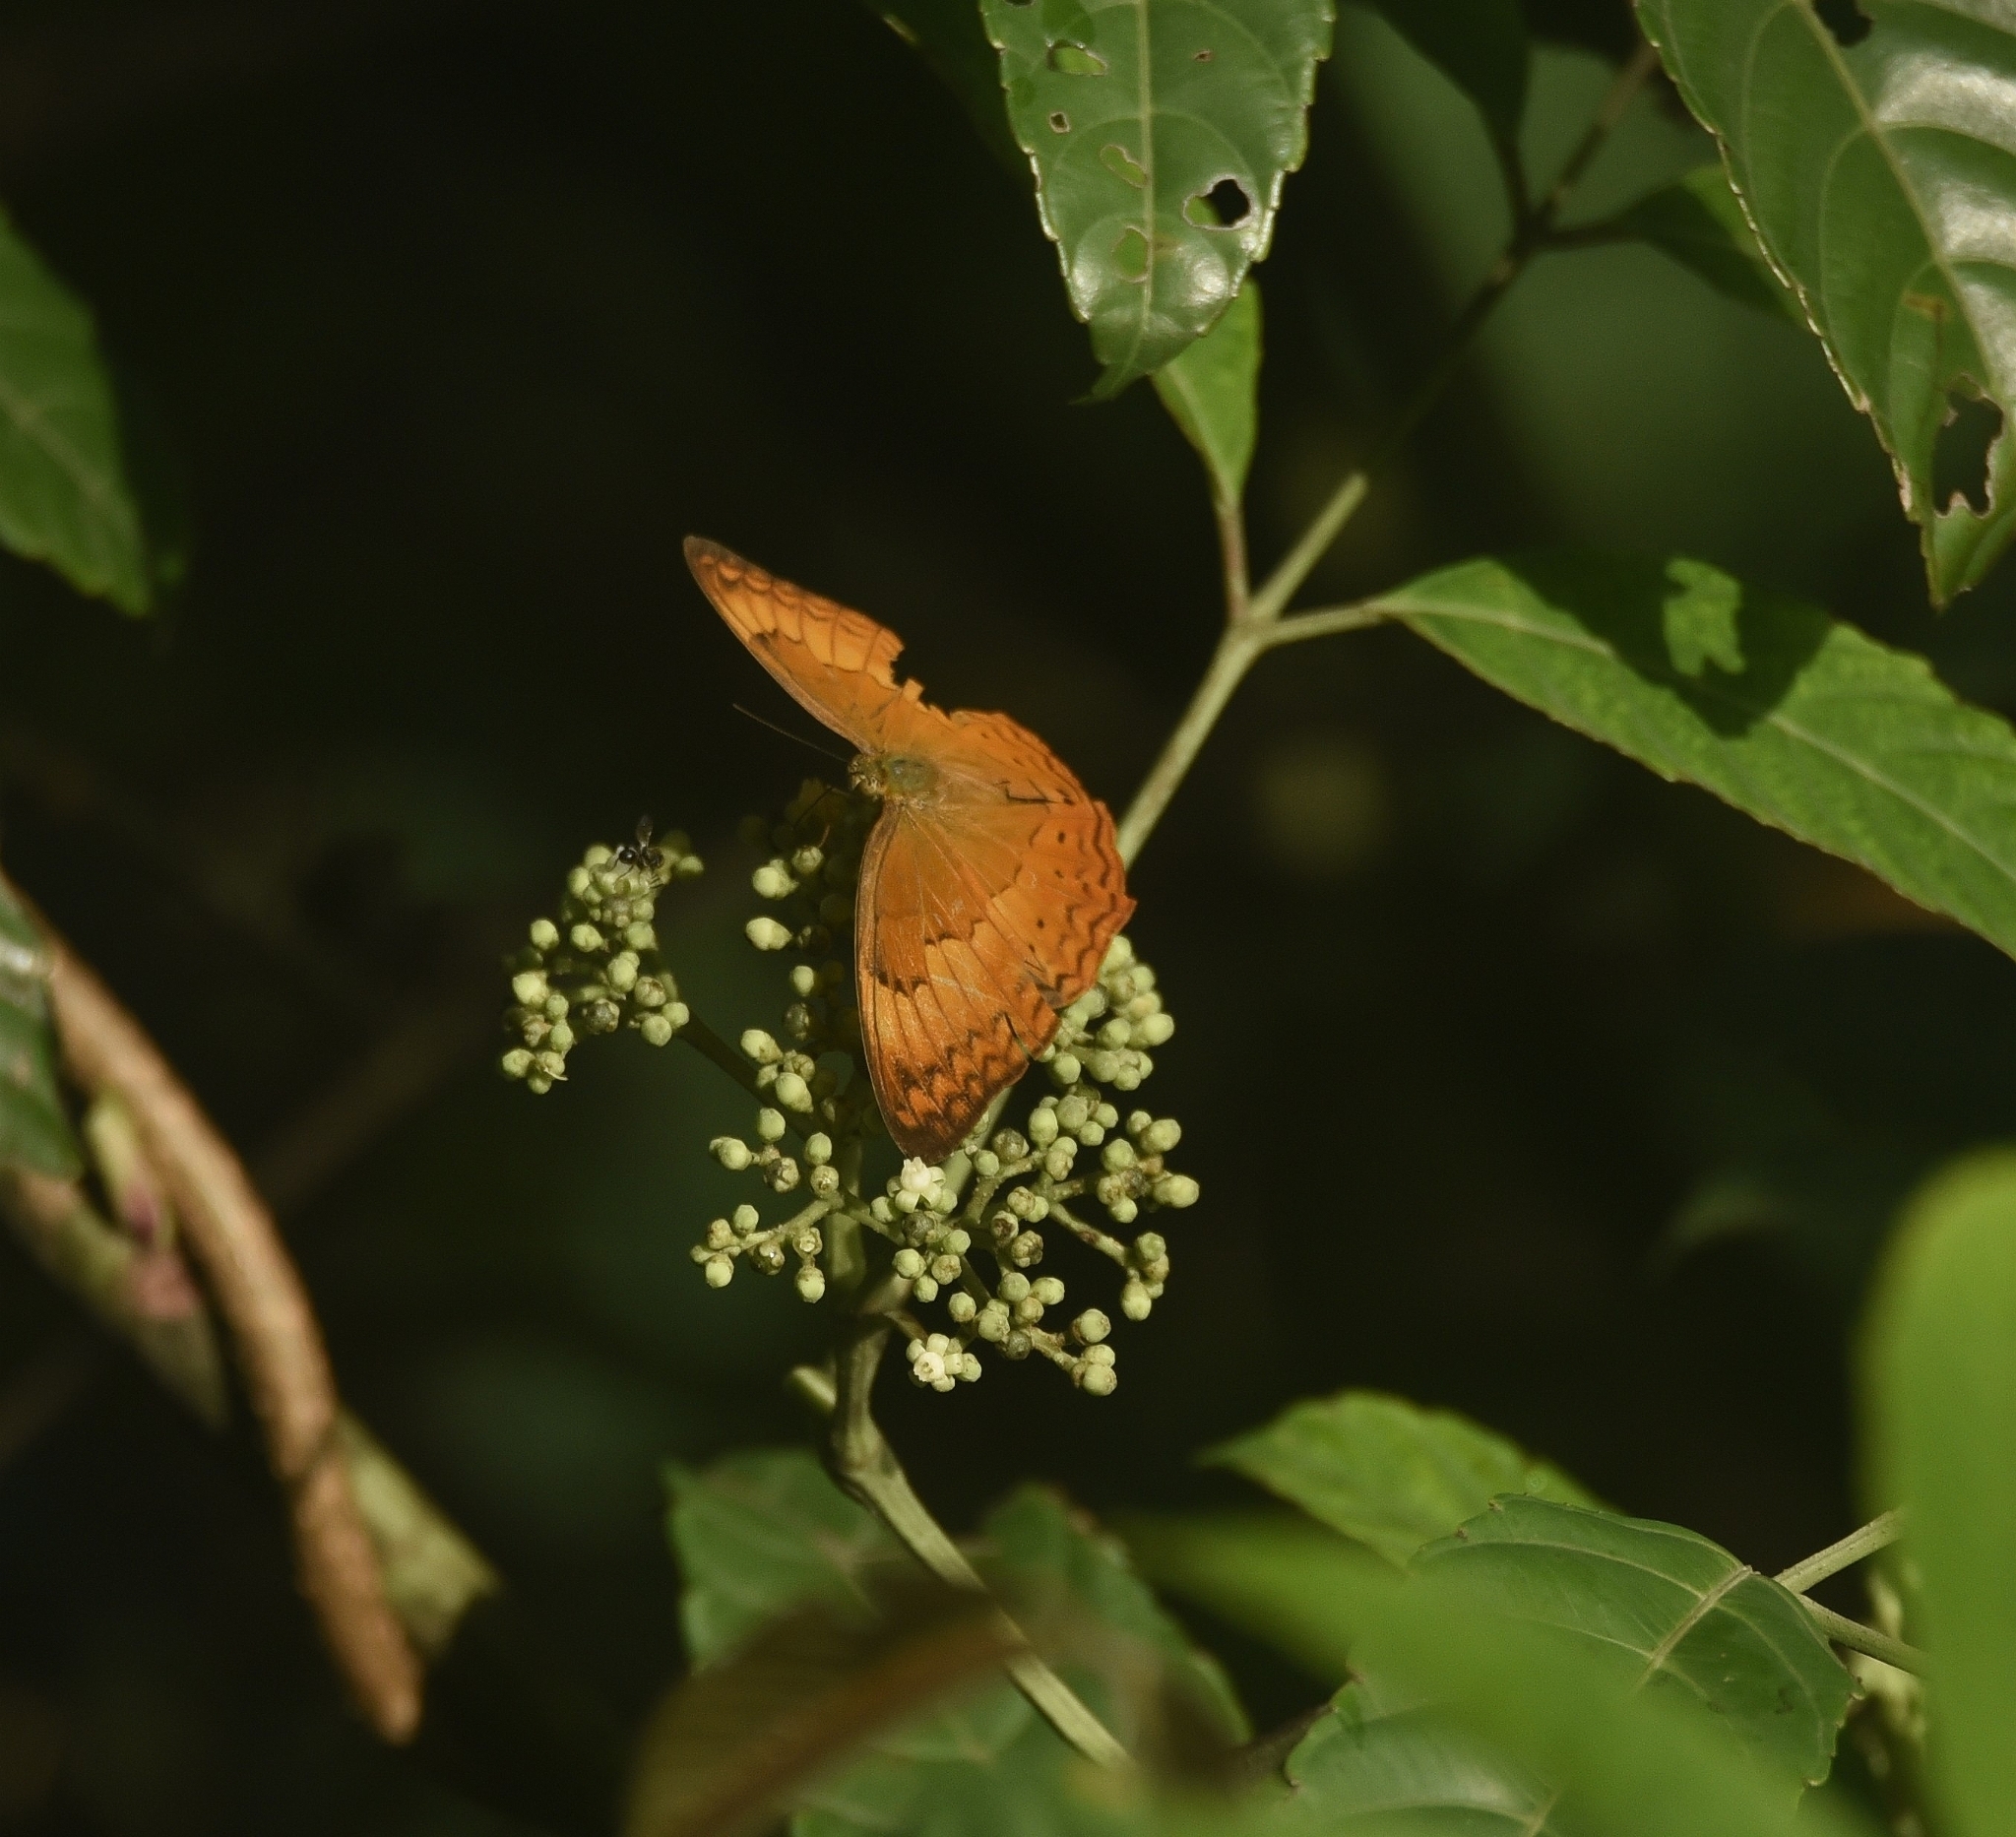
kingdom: Animalia
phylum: Arthropoda
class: Insecta
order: Lepidoptera
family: Nymphalidae
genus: Cirrochroa
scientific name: Cirrochroa thais
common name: Tamil yeoman
